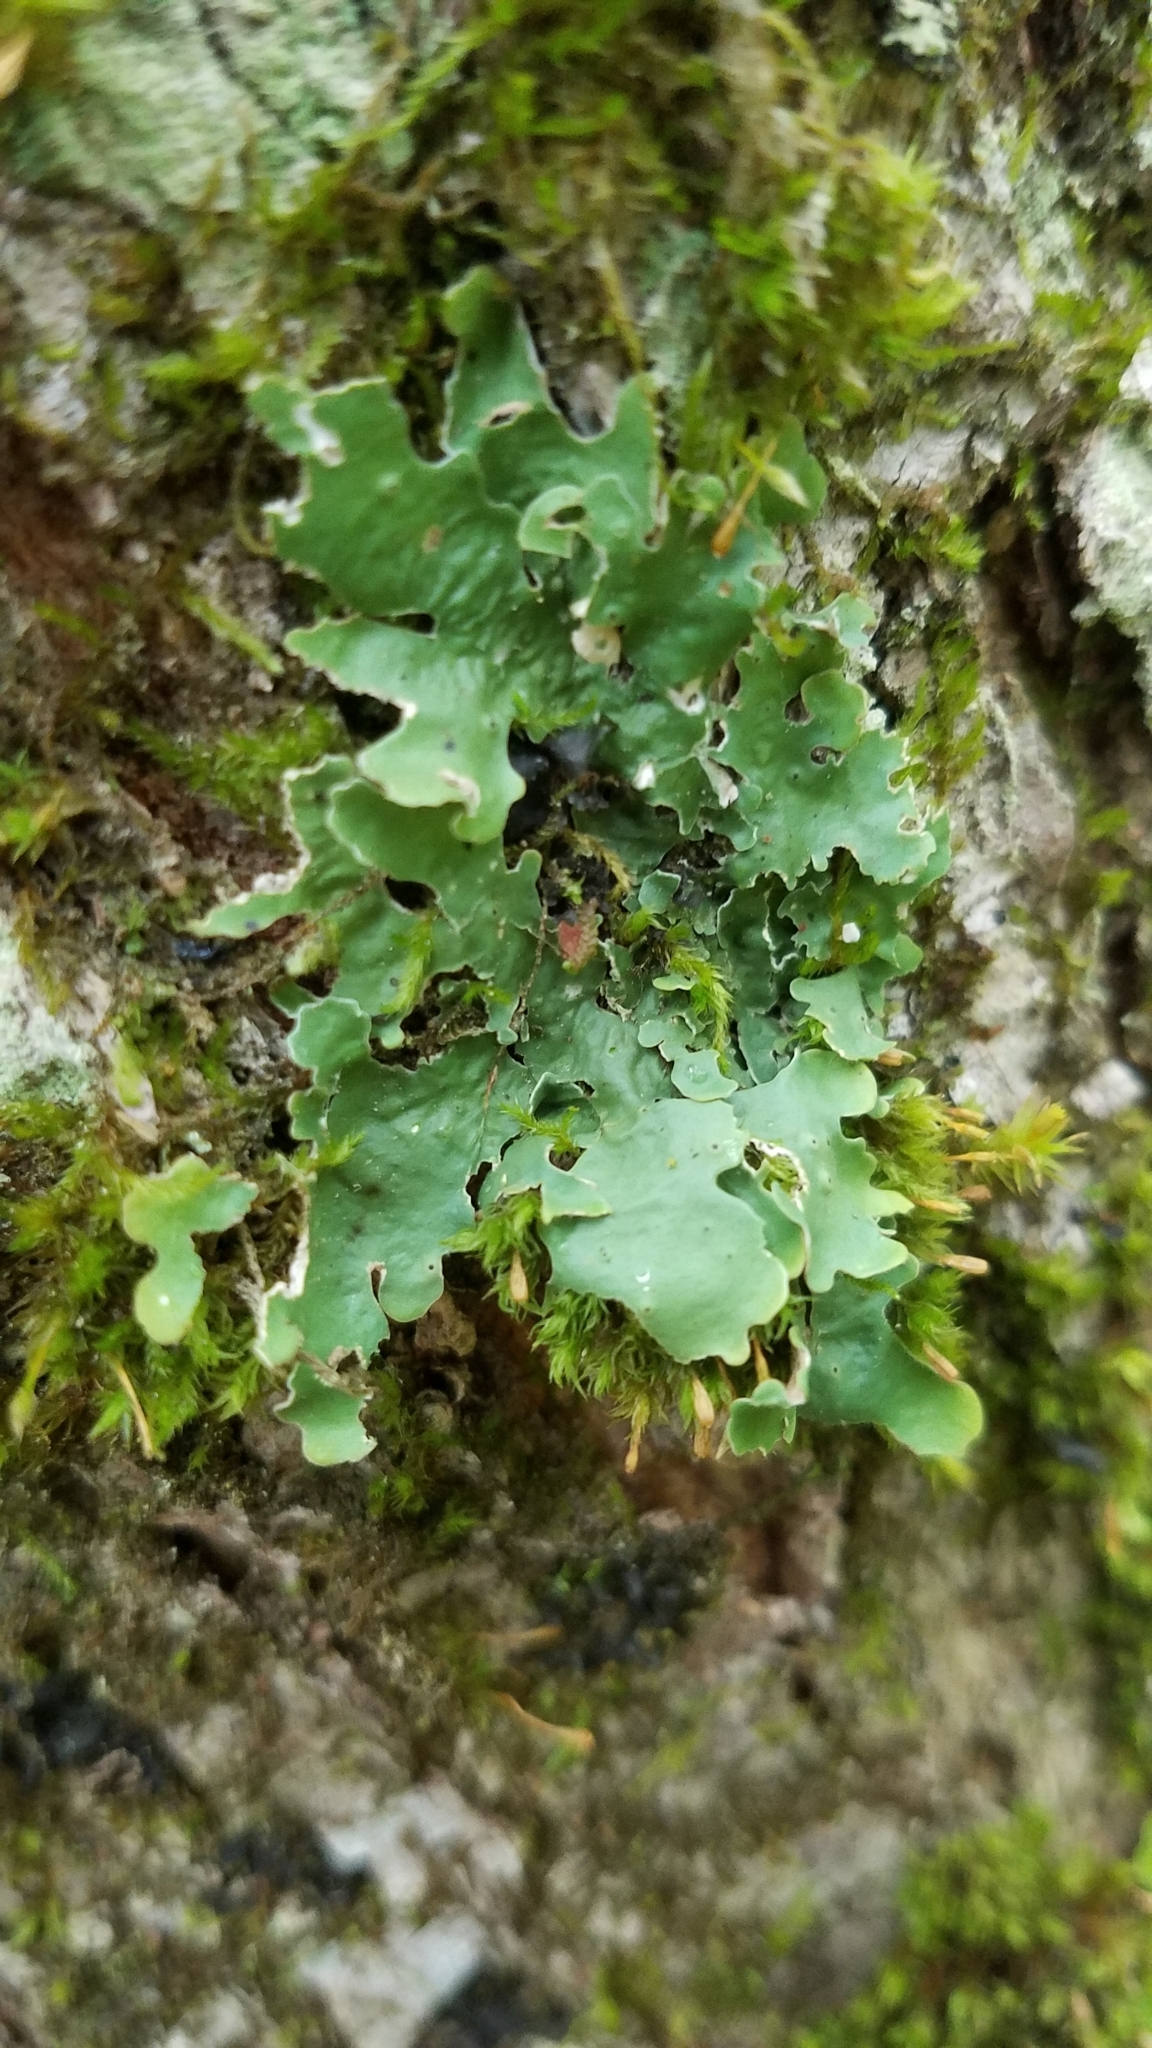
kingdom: Fungi
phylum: Ascomycota
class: Lecanoromycetes
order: Peltigerales
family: Lobariaceae
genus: Ricasolia
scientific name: Ricasolia quercizans
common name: Smooth lungwort
